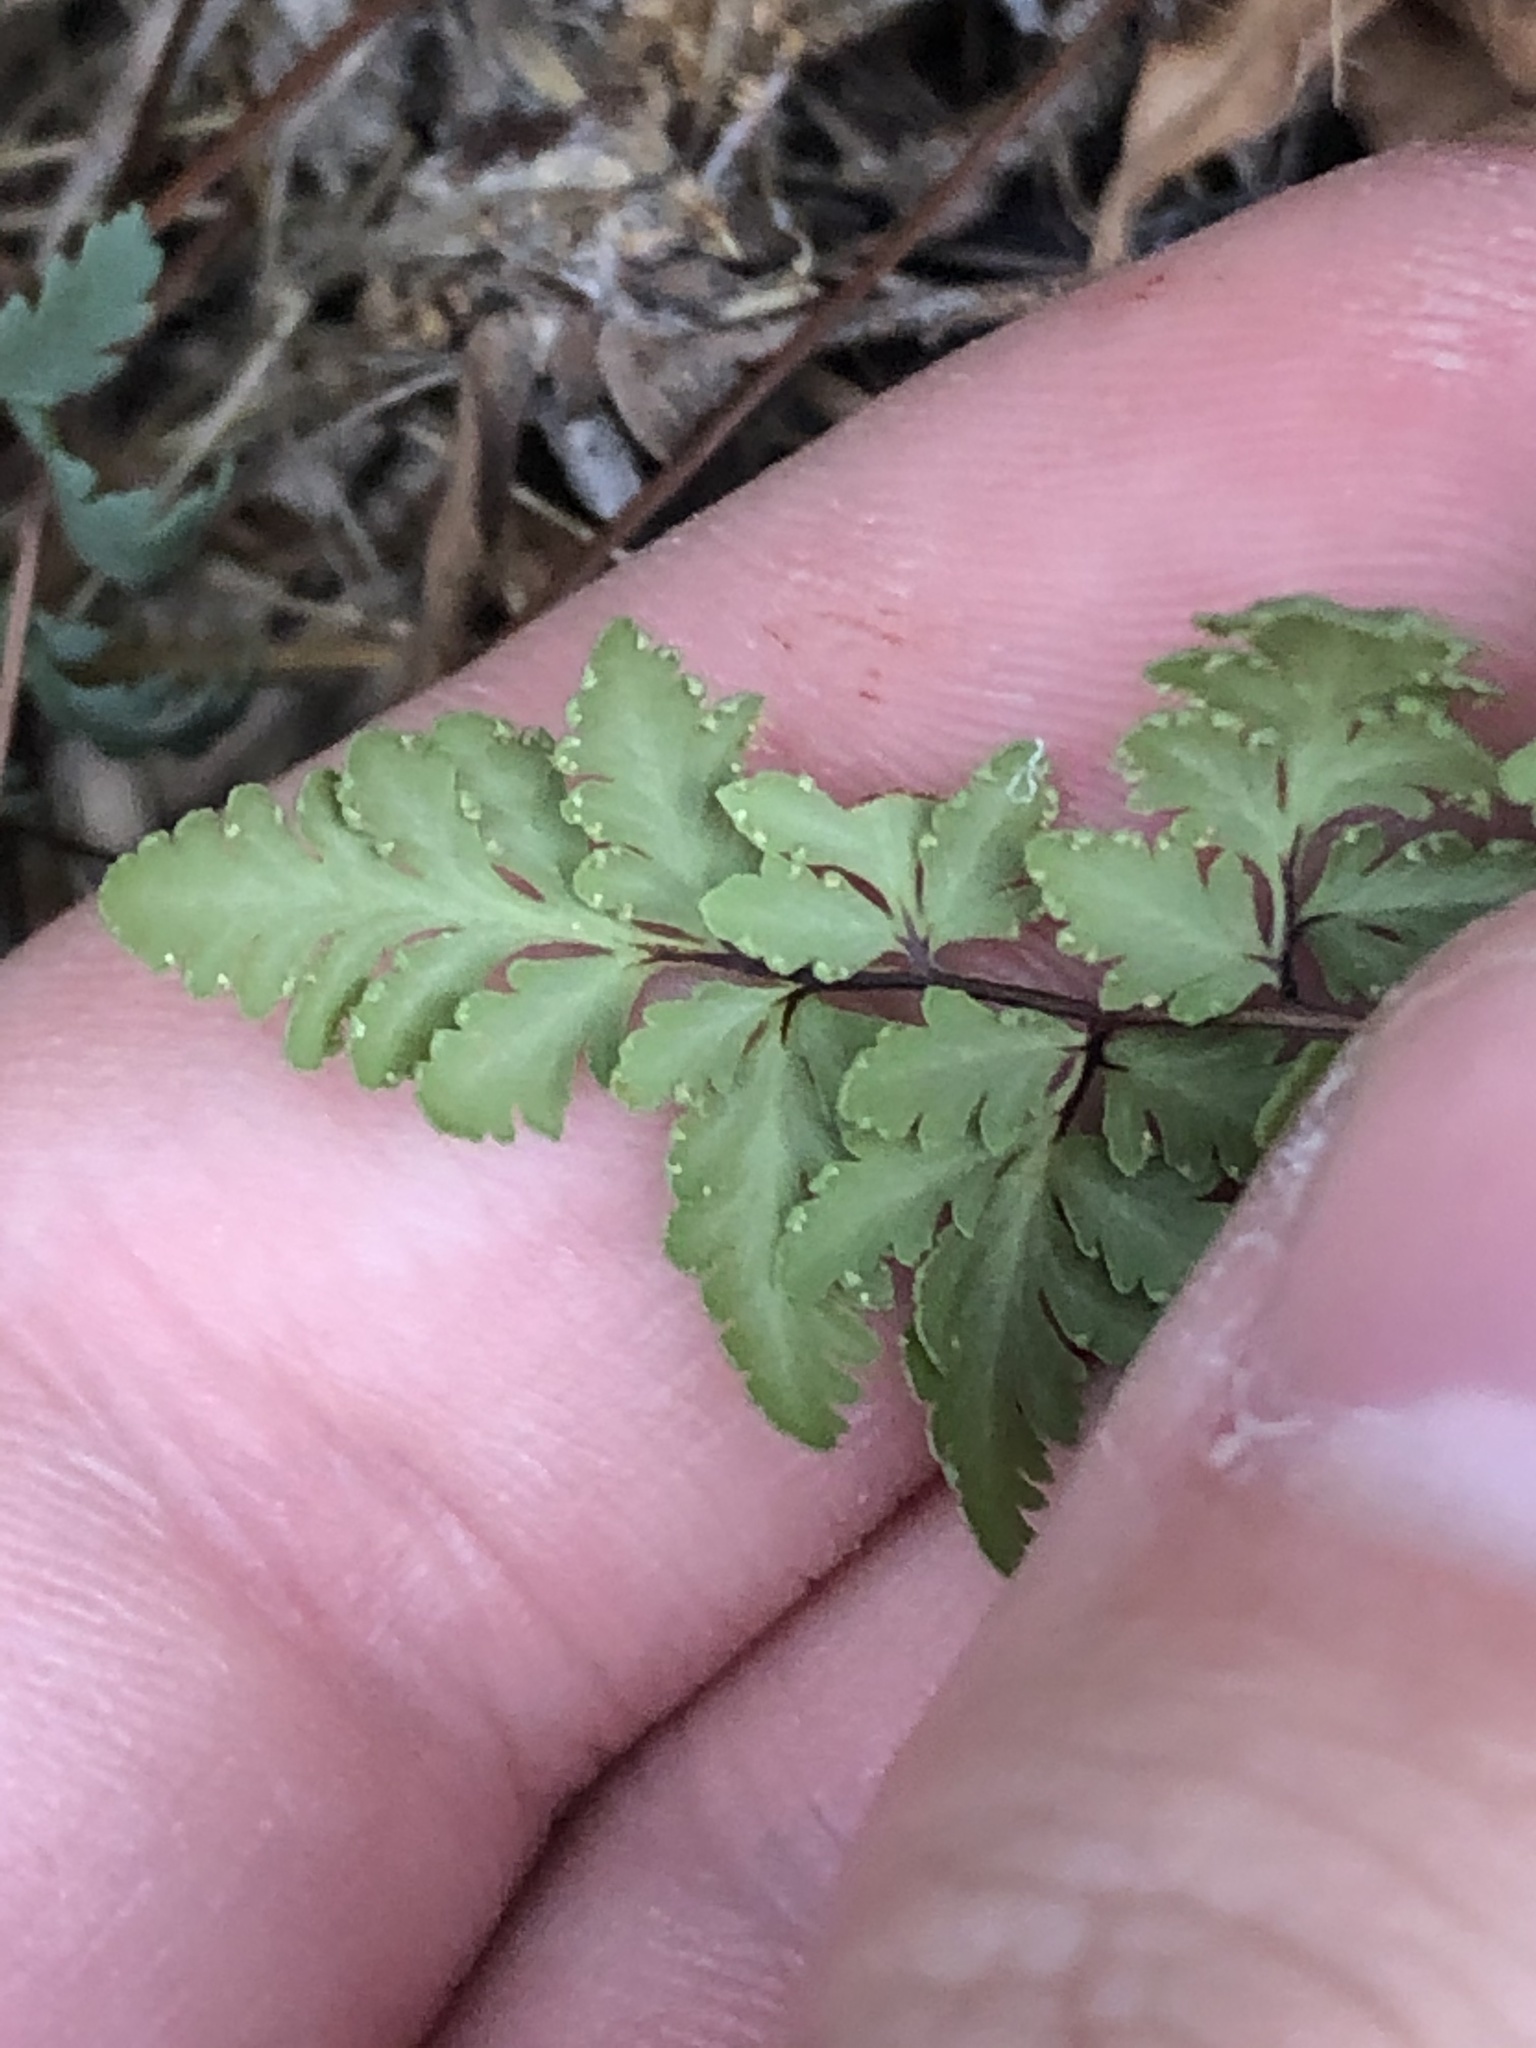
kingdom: Plantae
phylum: Tracheophyta
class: Polypodiopsida
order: Polypodiales
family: Pteridaceae
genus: Myriopteris
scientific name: Myriopteris wrightii
